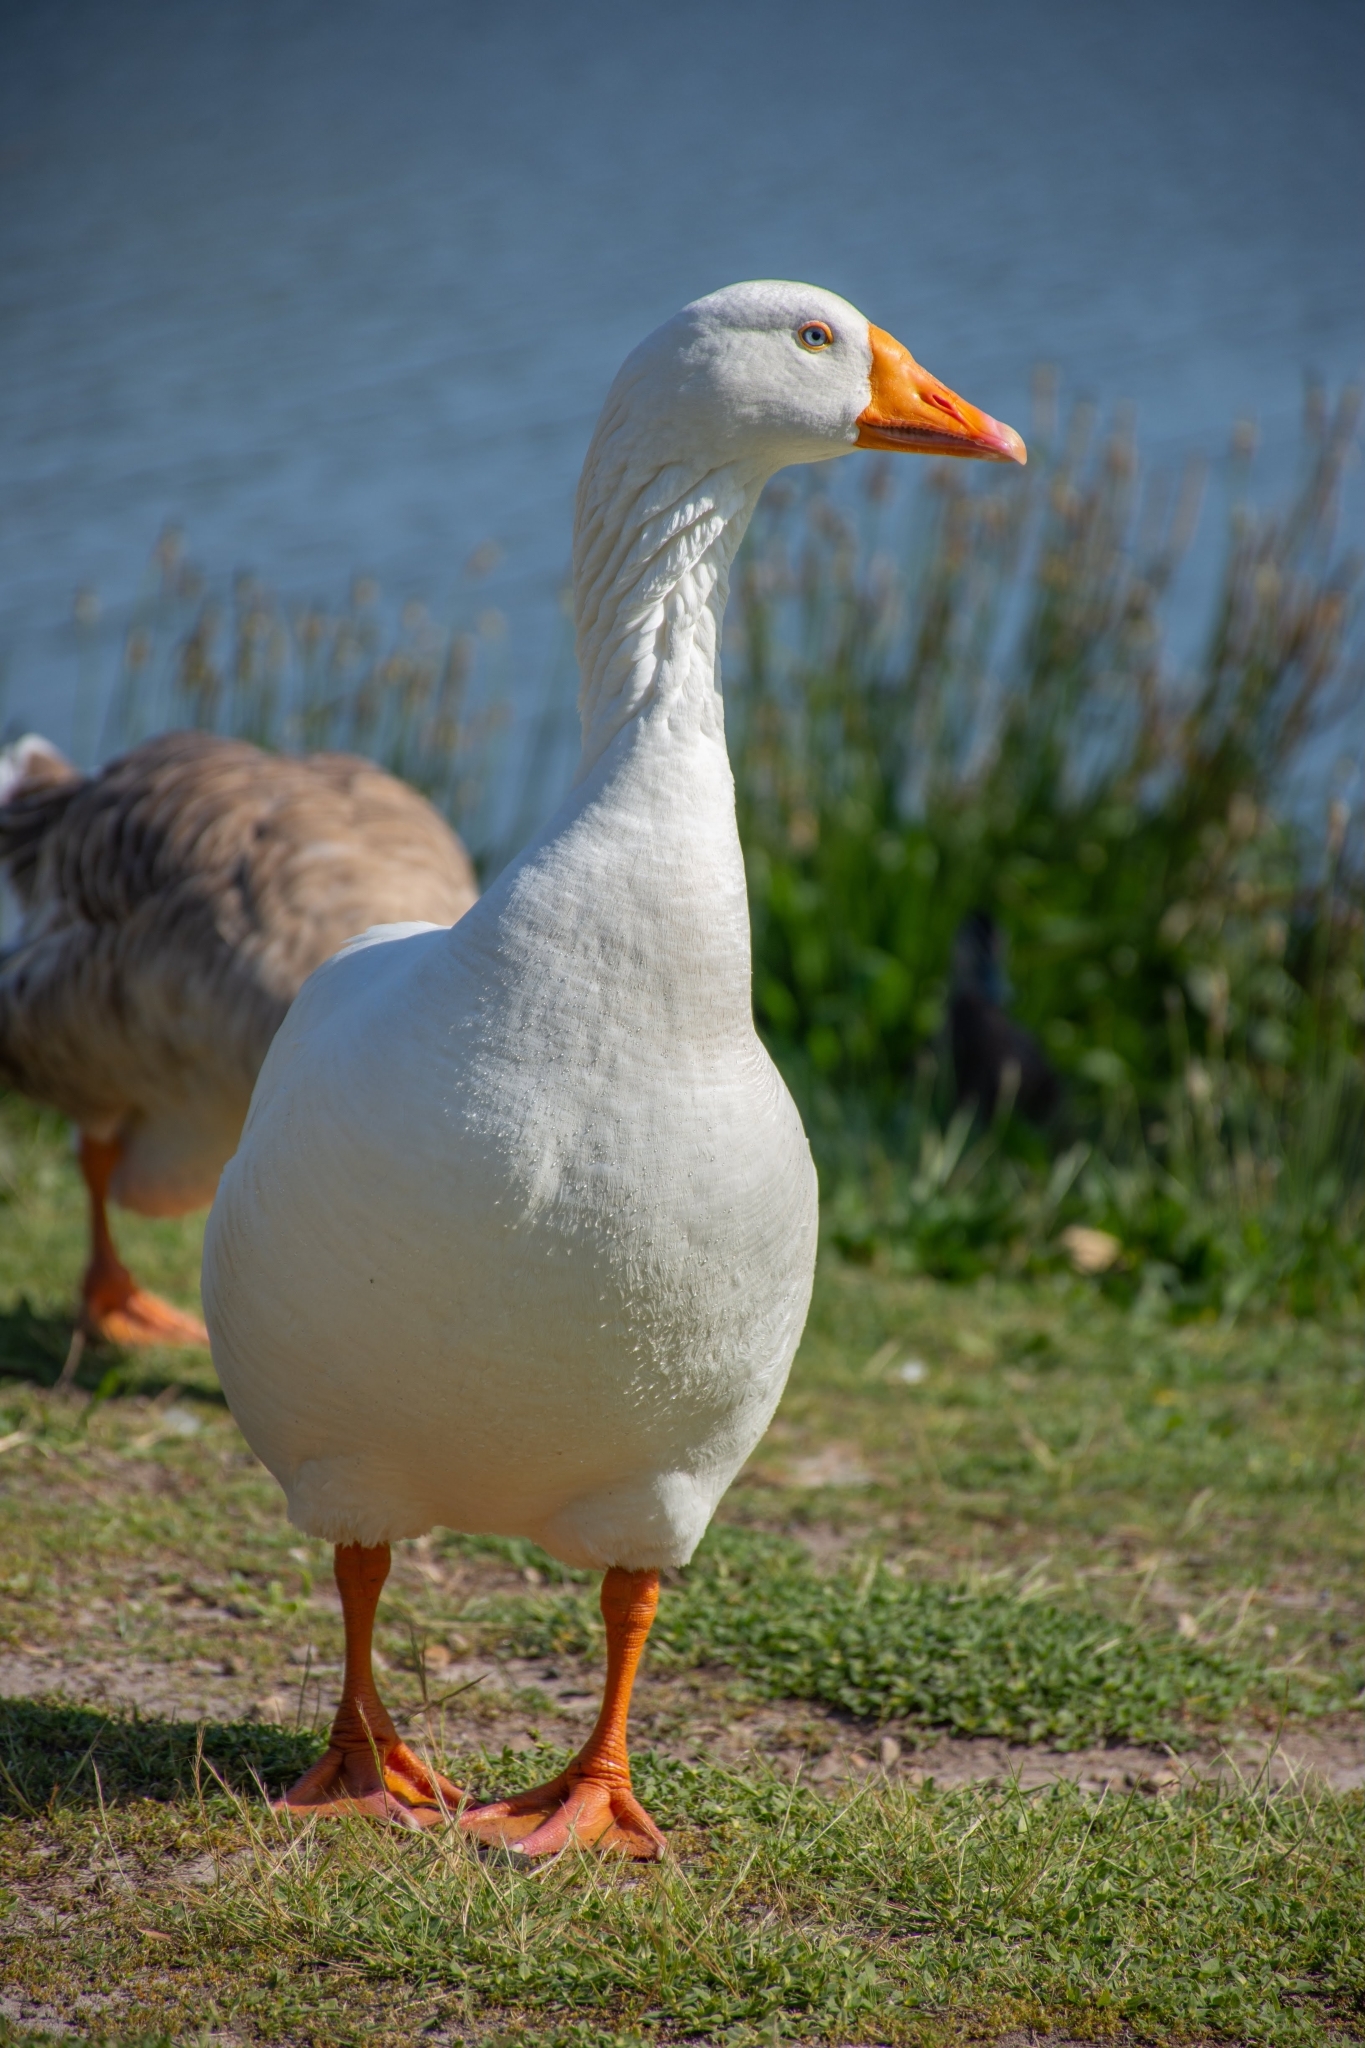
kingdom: Animalia
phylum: Chordata
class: Aves
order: Anseriformes
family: Anatidae
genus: Anser
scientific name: Anser
